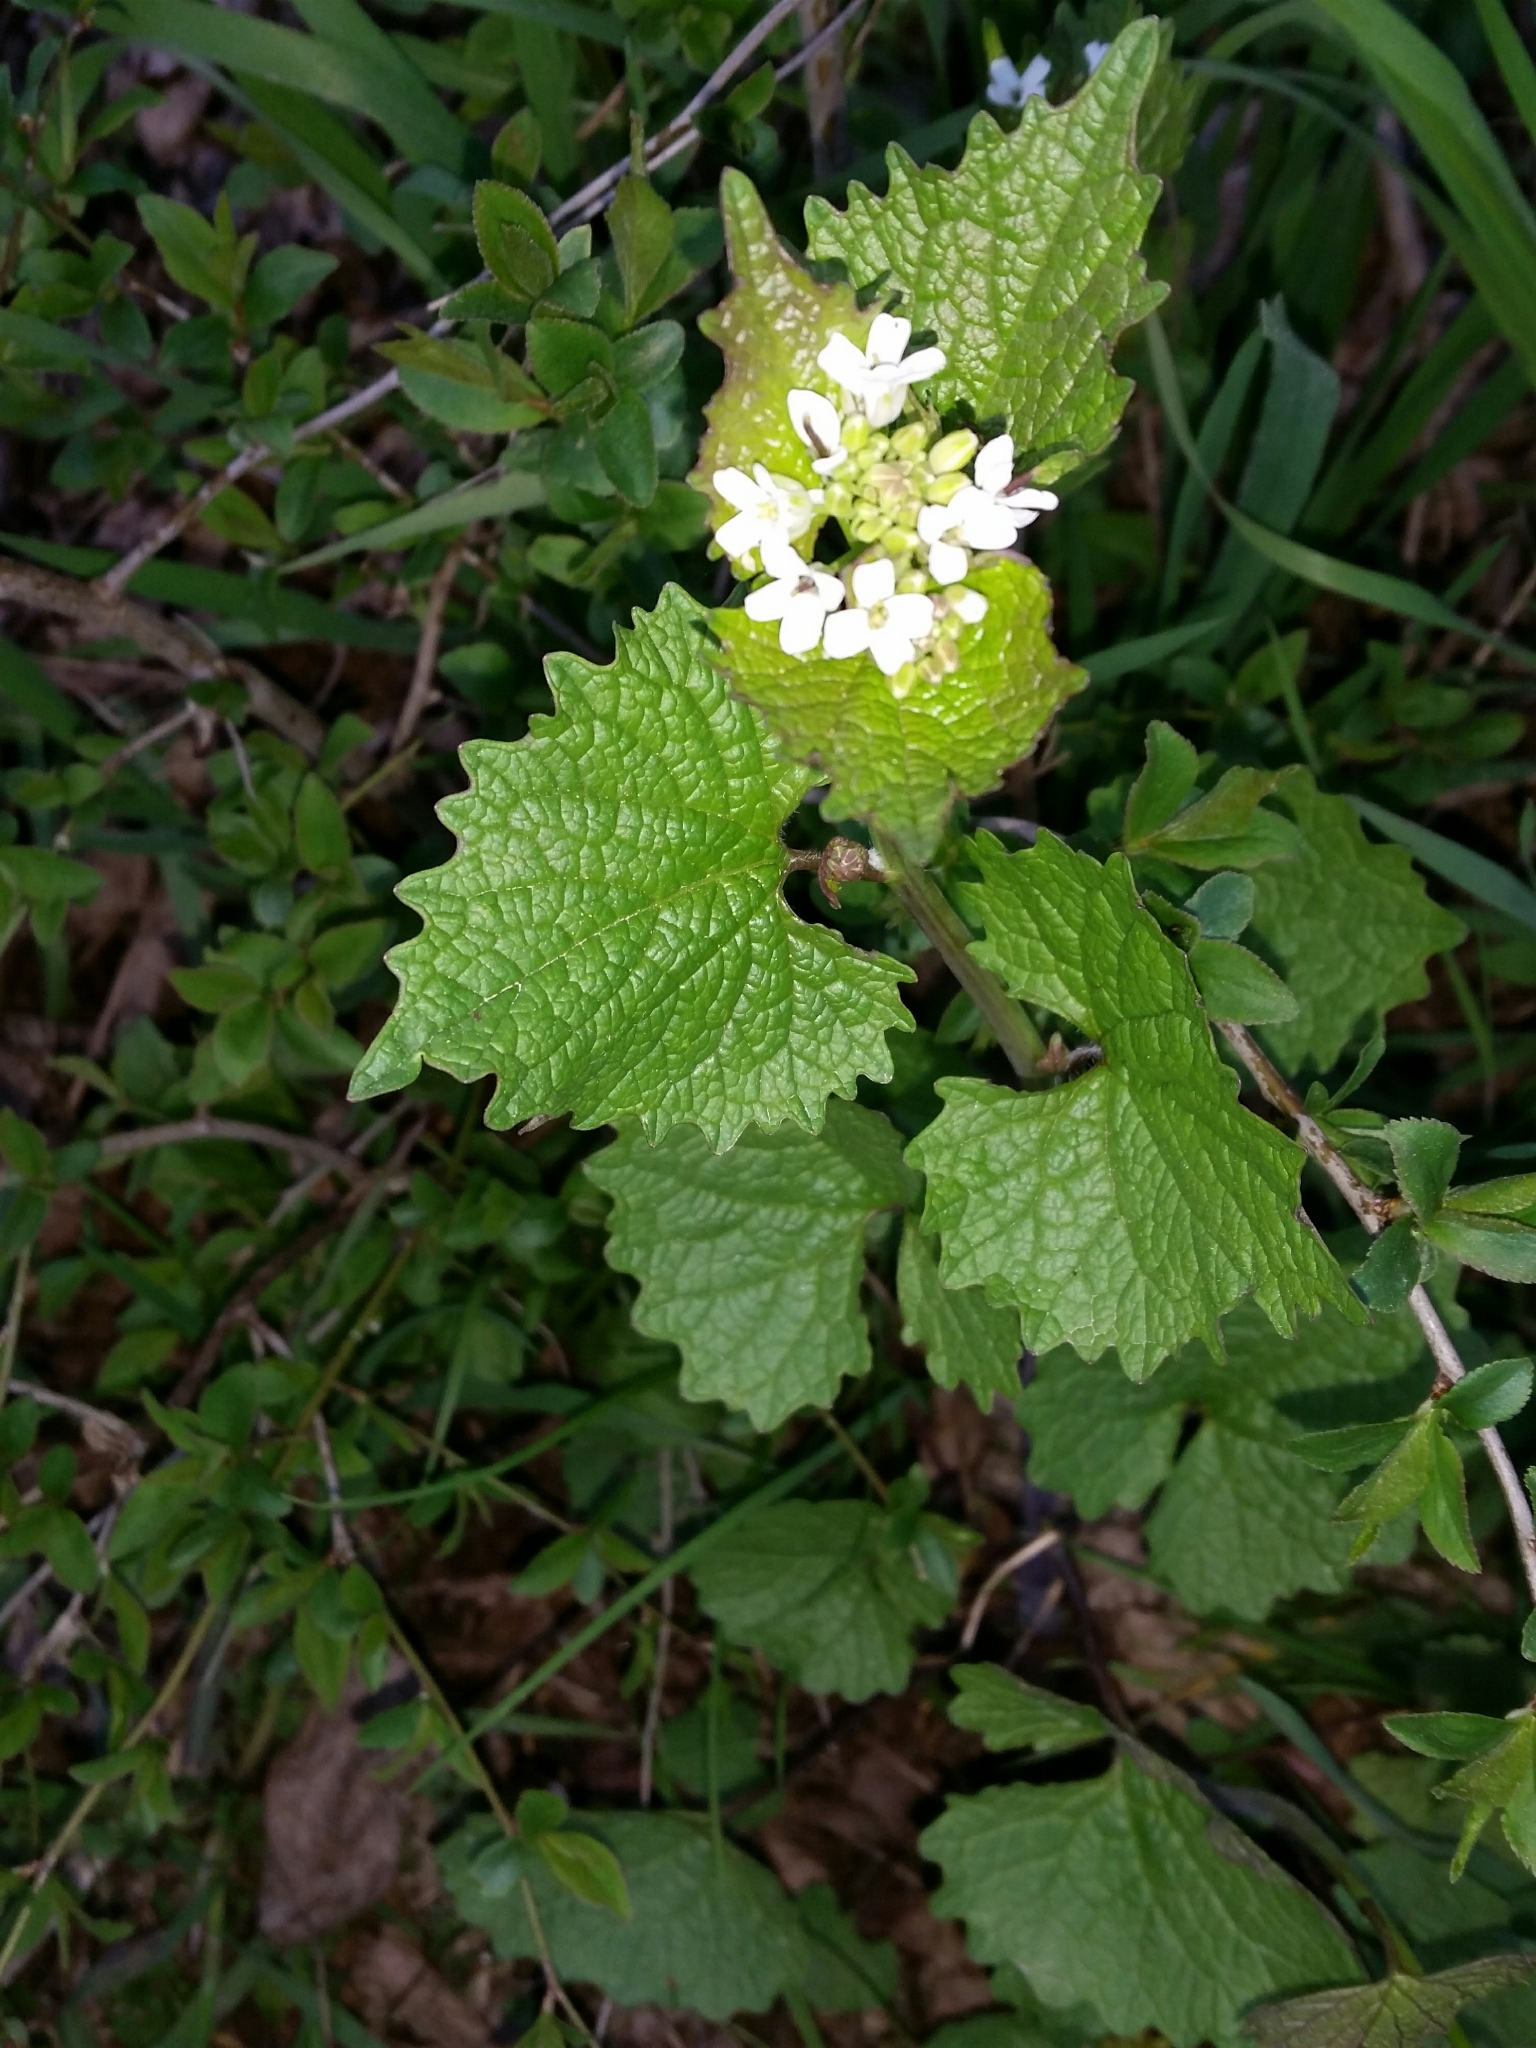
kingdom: Plantae
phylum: Tracheophyta
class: Magnoliopsida
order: Brassicales
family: Brassicaceae
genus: Alliaria
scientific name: Alliaria petiolata
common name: Garlic mustard
